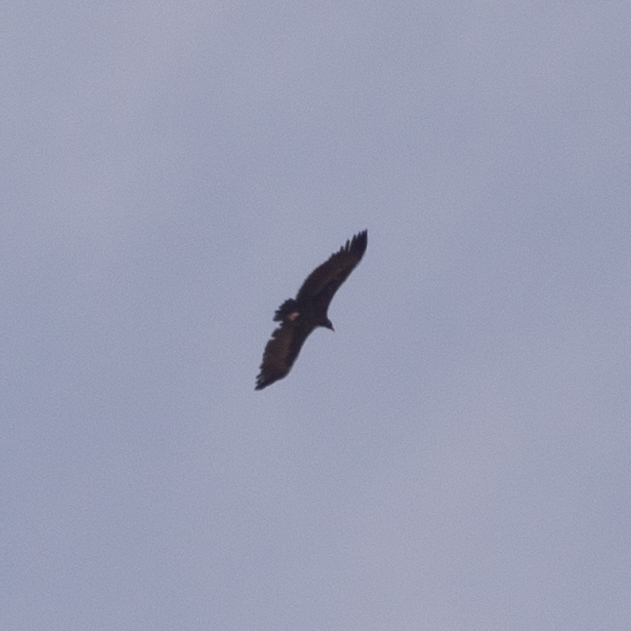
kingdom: Animalia
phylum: Chordata
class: Aves
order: Accipitriformes
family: Accipitridae
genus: Aegypius
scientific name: Aegypius monachus
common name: Cinereous vulture
